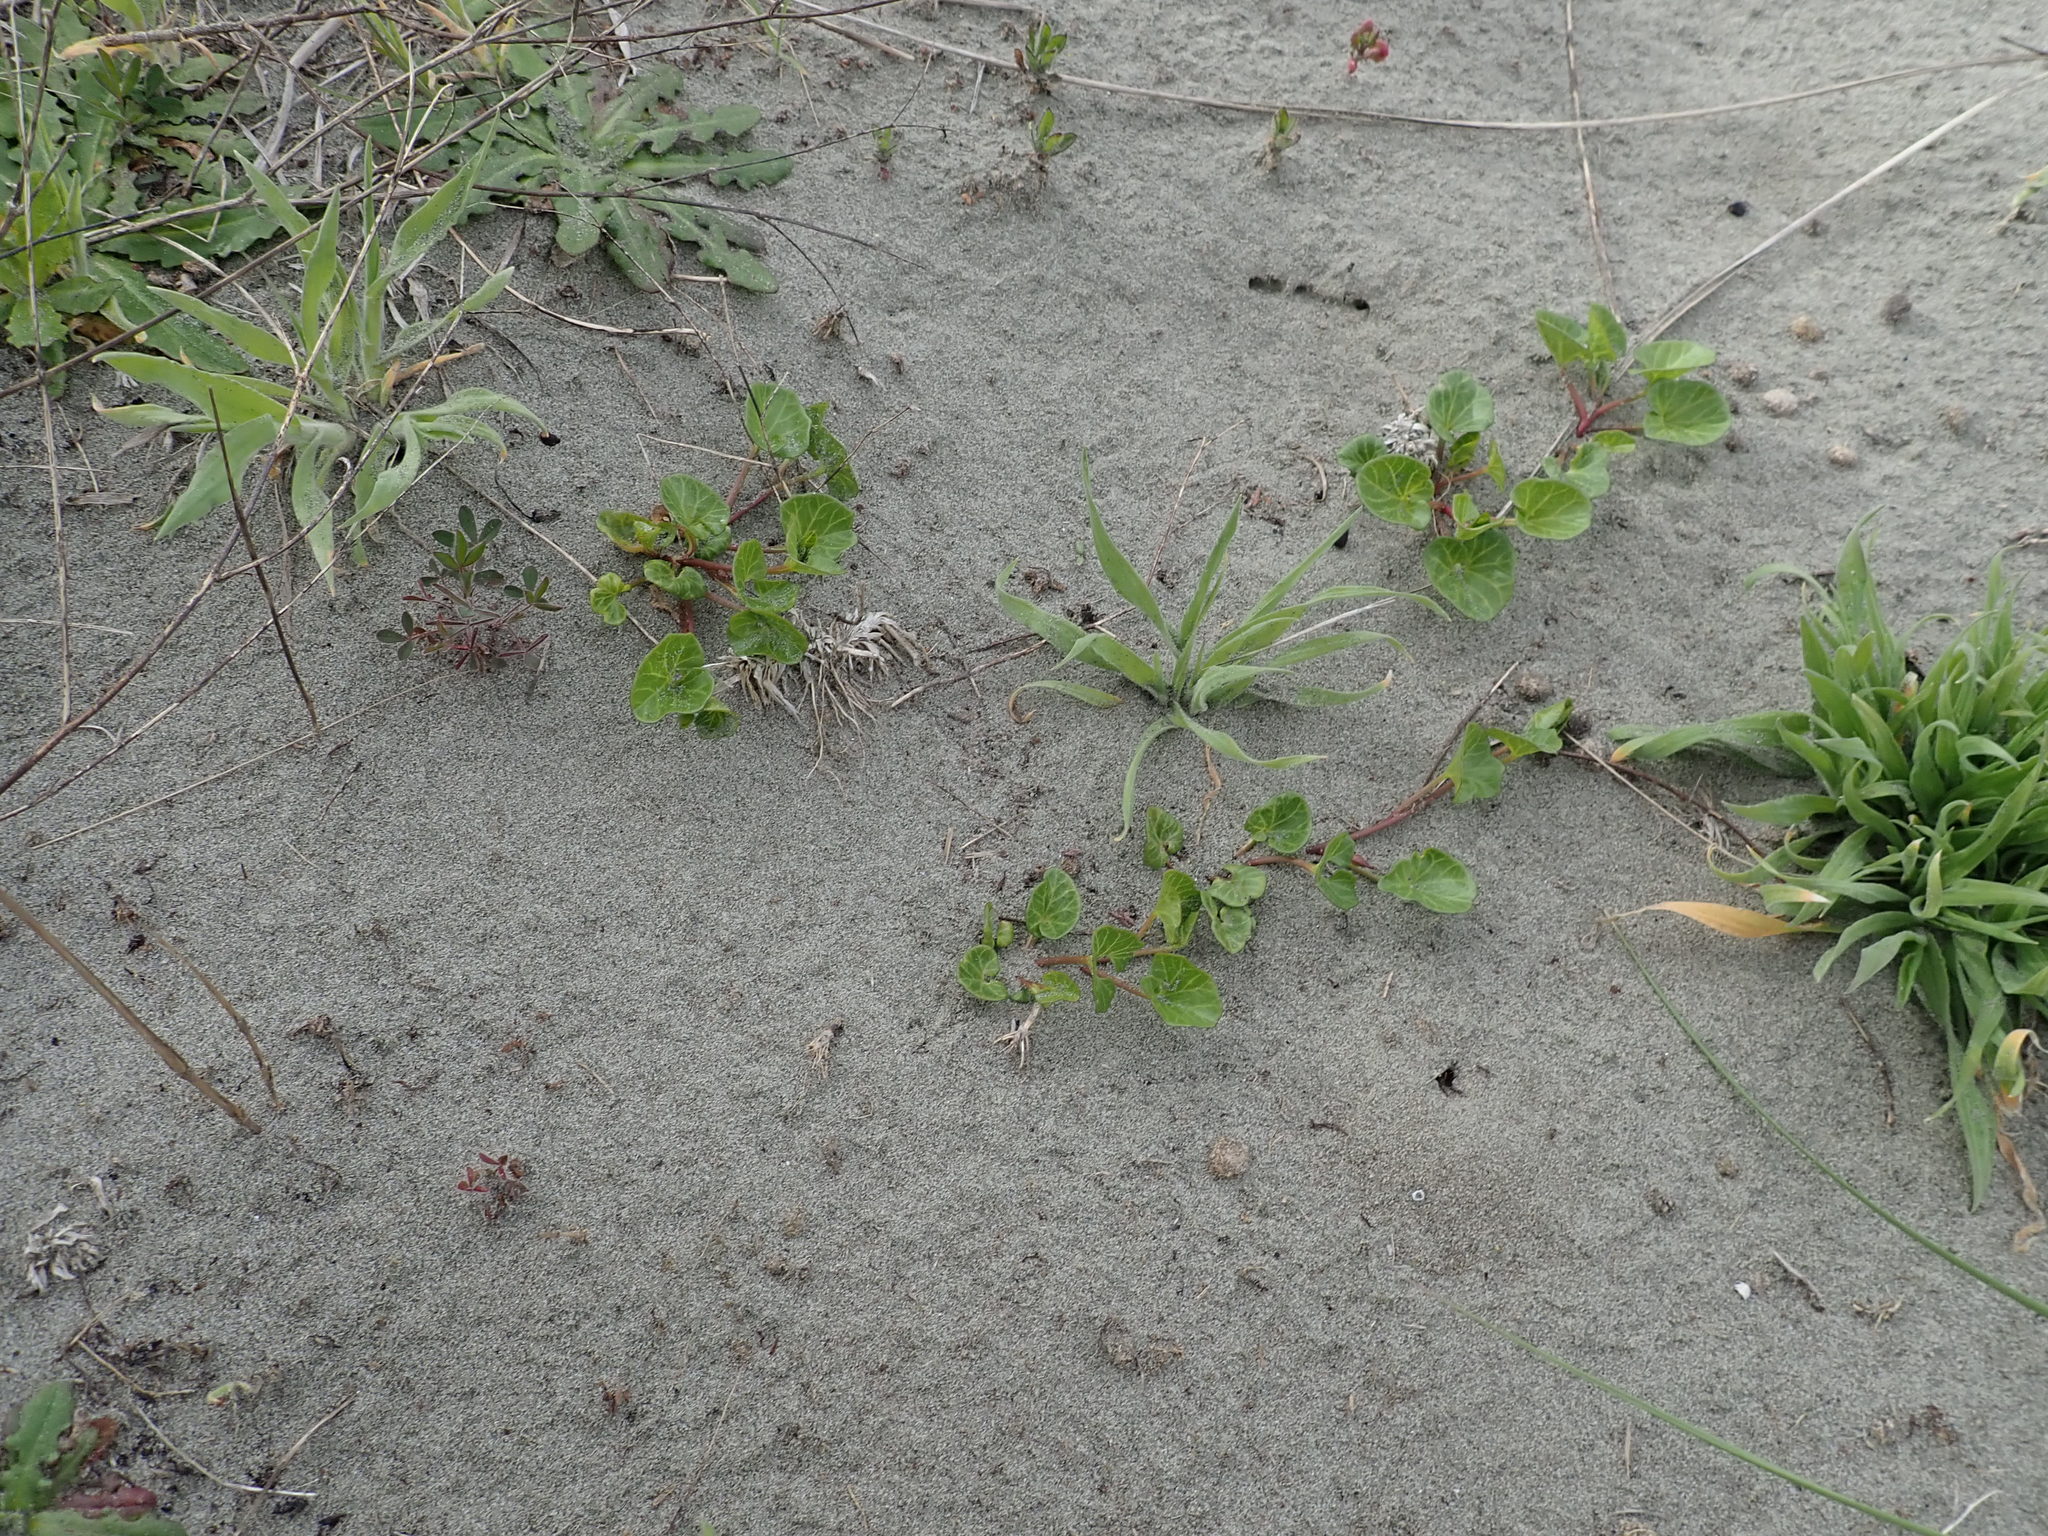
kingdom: Plantae
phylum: Tracheophyta
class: Magnoliopsida
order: Solanales
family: Convolvulaceae
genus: Calystegia
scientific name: Calystegia soldanella
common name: Sea bindweed
